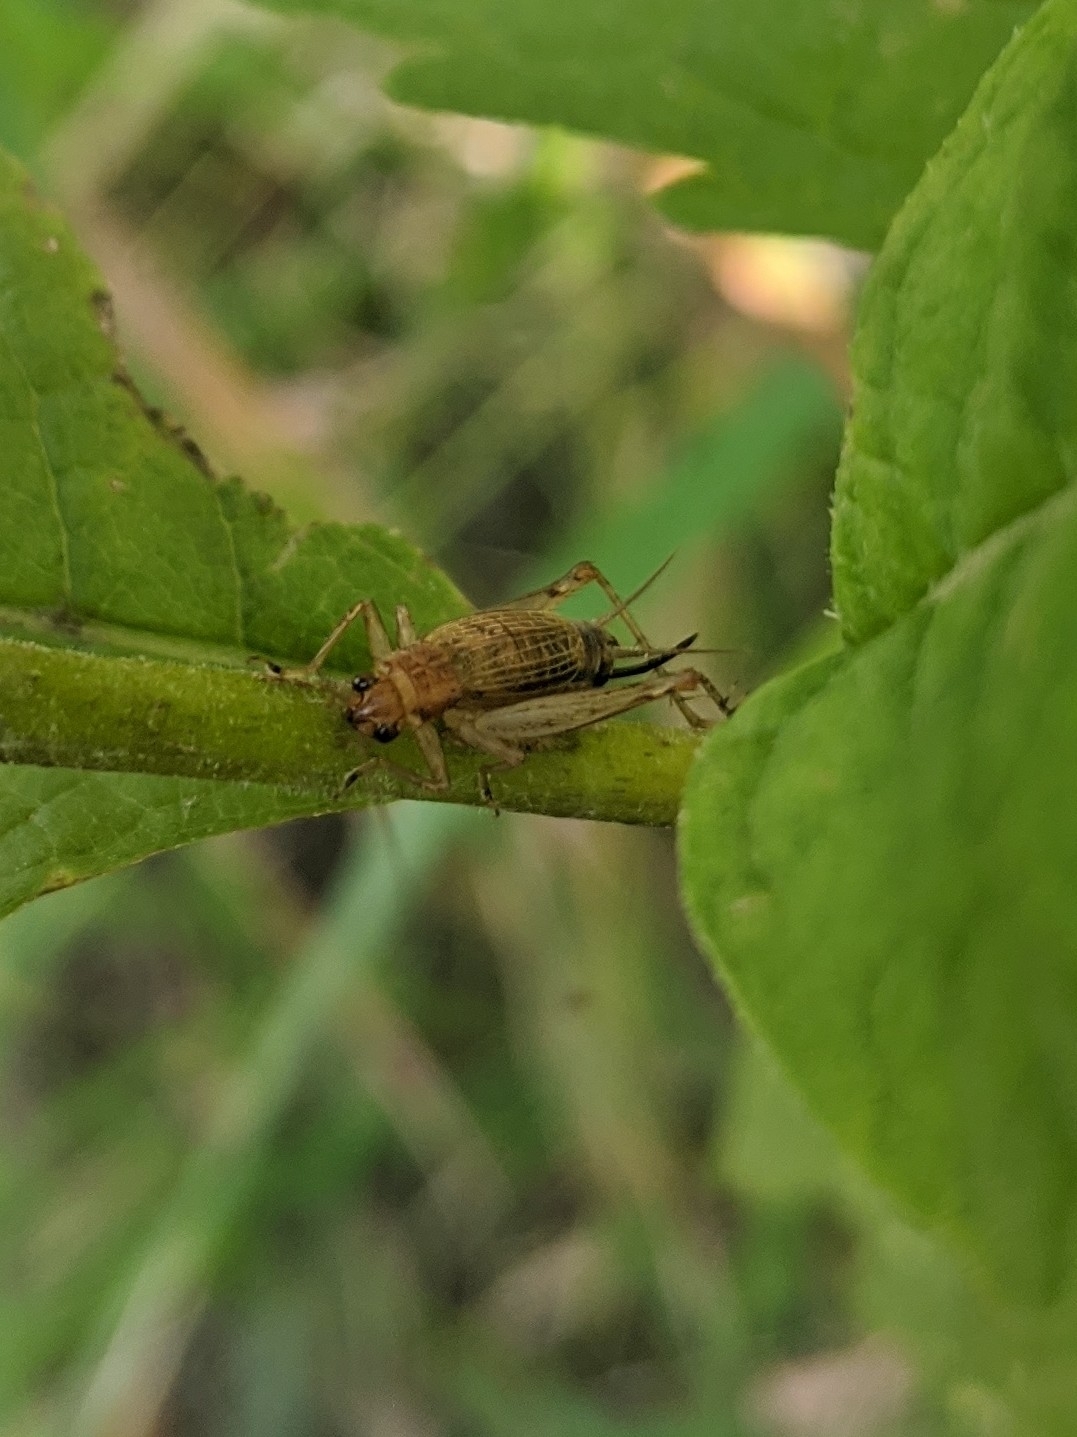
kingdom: Animalia
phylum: Arthropoda
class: Insecta
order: Orthoptera
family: Trigonidiidae
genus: Anaxipha
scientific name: Anaxipha exigua
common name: Say's bush cricket
